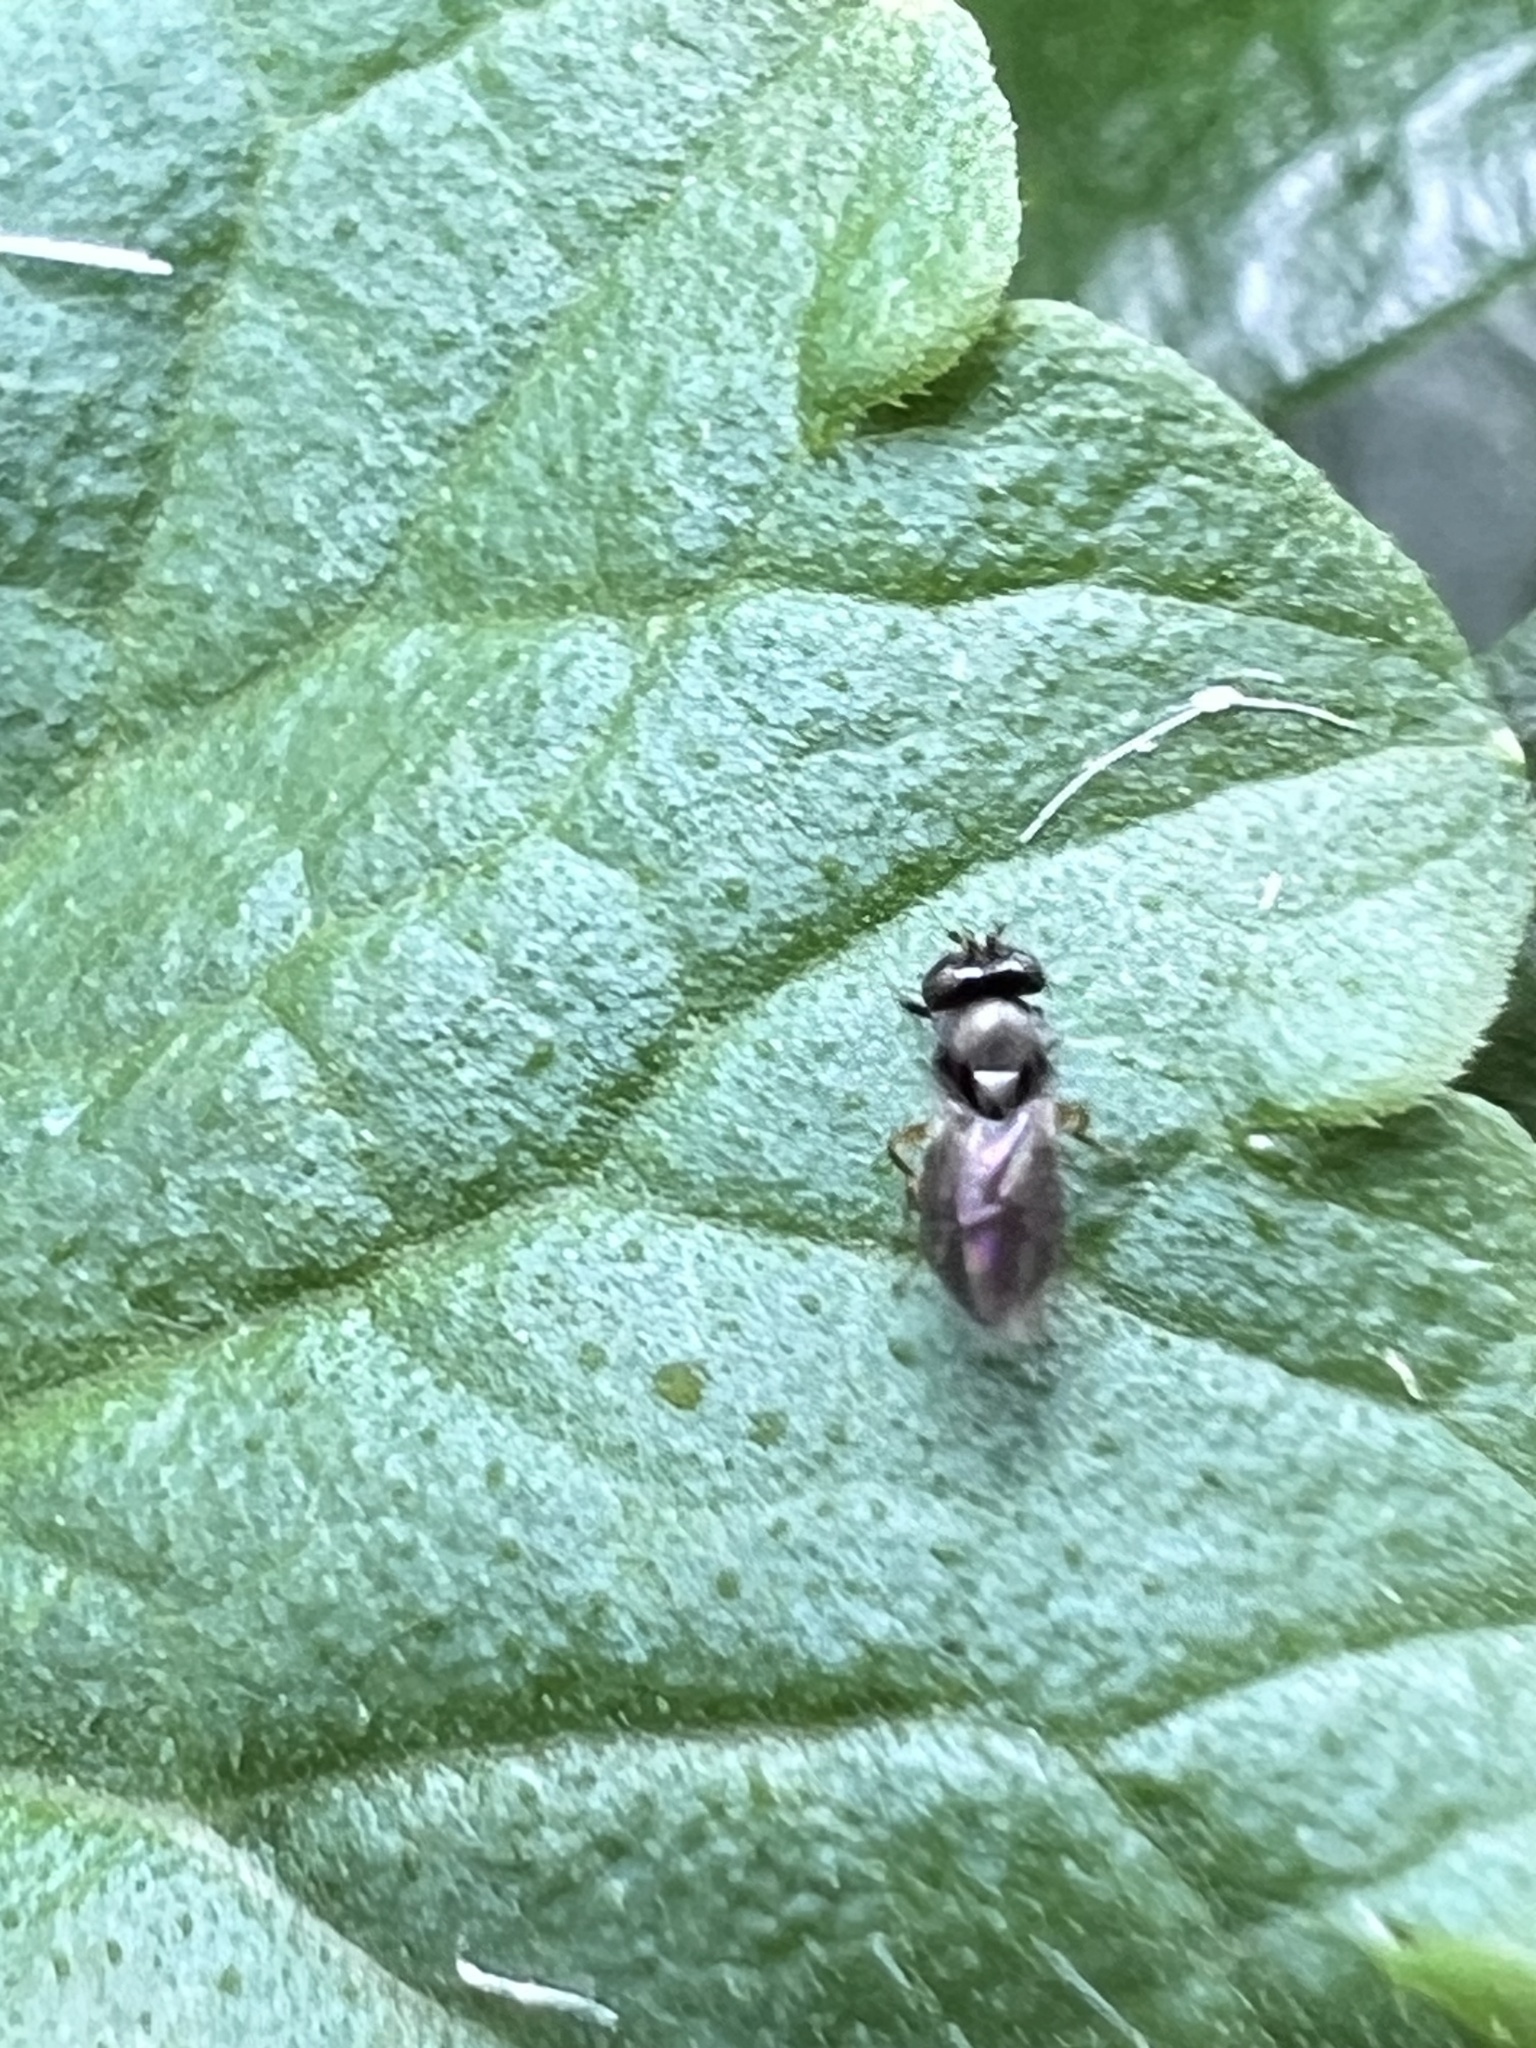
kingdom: Animalia
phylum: Arthropoda
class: Insecta
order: Diptera
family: Ephydridae
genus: Leptopsilopa
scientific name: Leptopsilopa atrimanus
